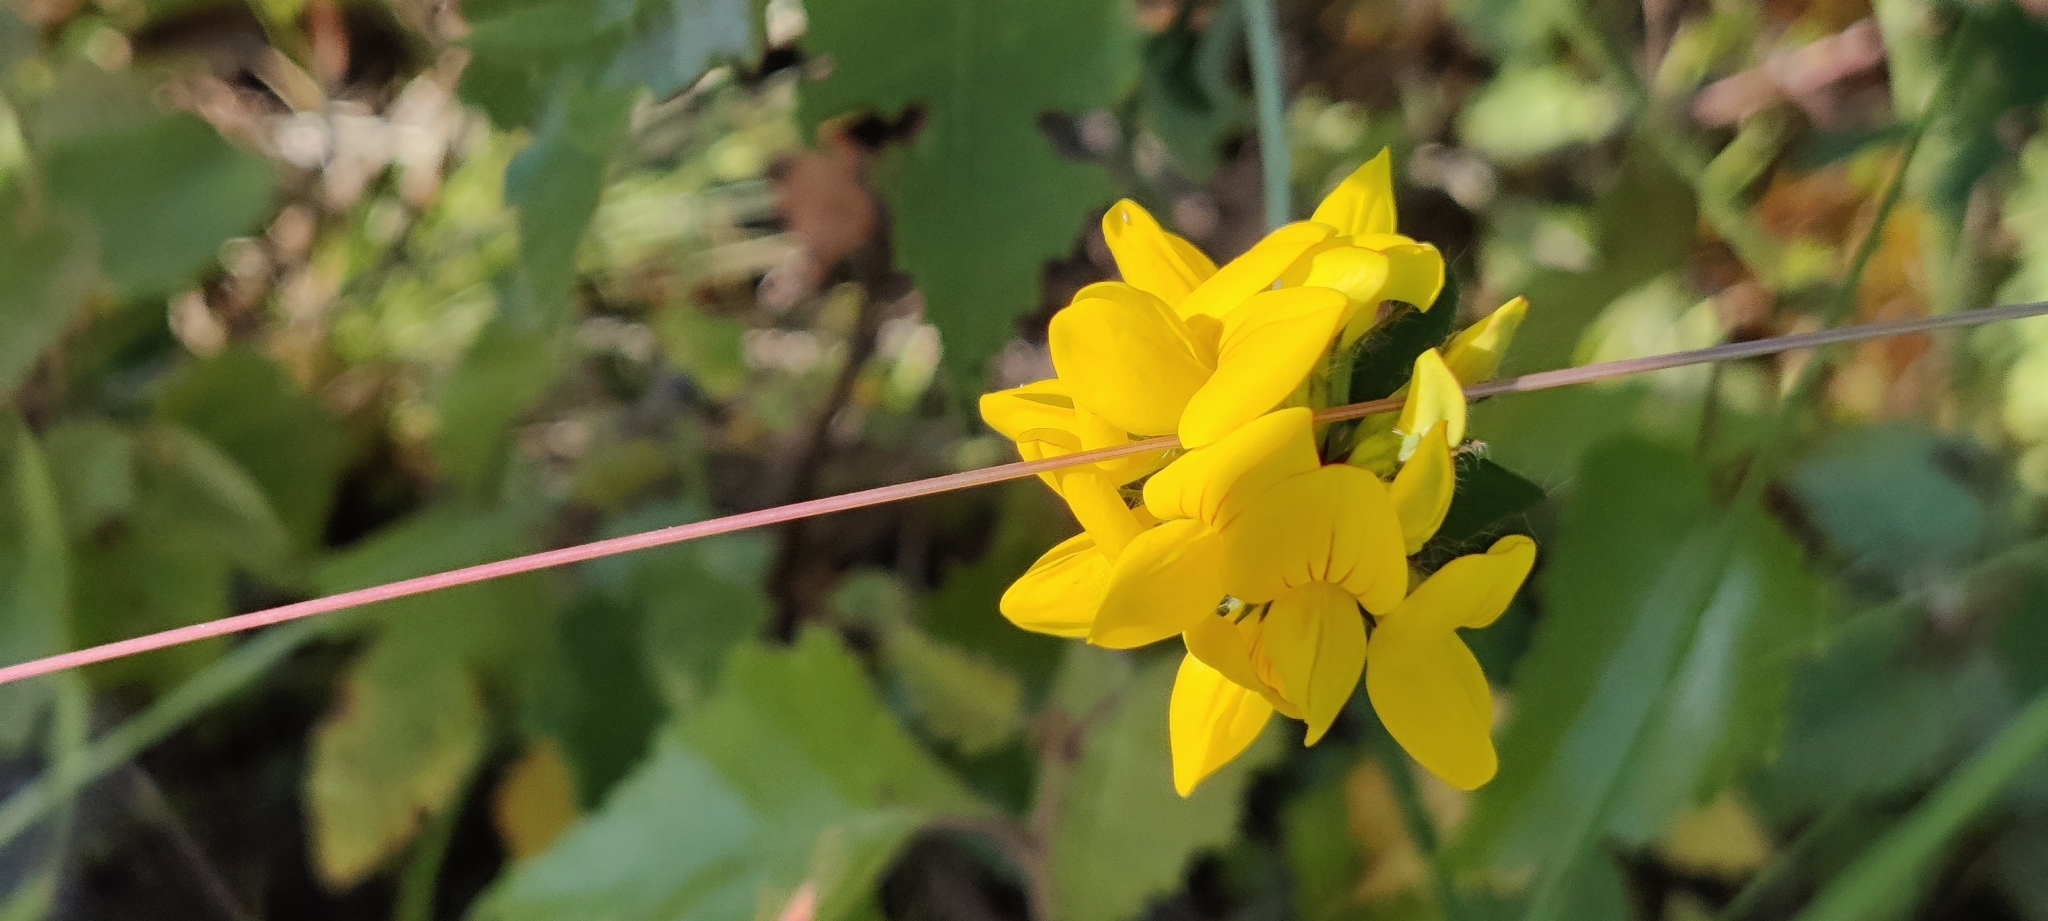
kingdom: Plantae
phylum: Tracheophyta
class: Magnoliopsida
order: Fabales
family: Fabaceae
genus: Lotus
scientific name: Lotus pedunculatus
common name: Greater birdsfoot-trefoil
